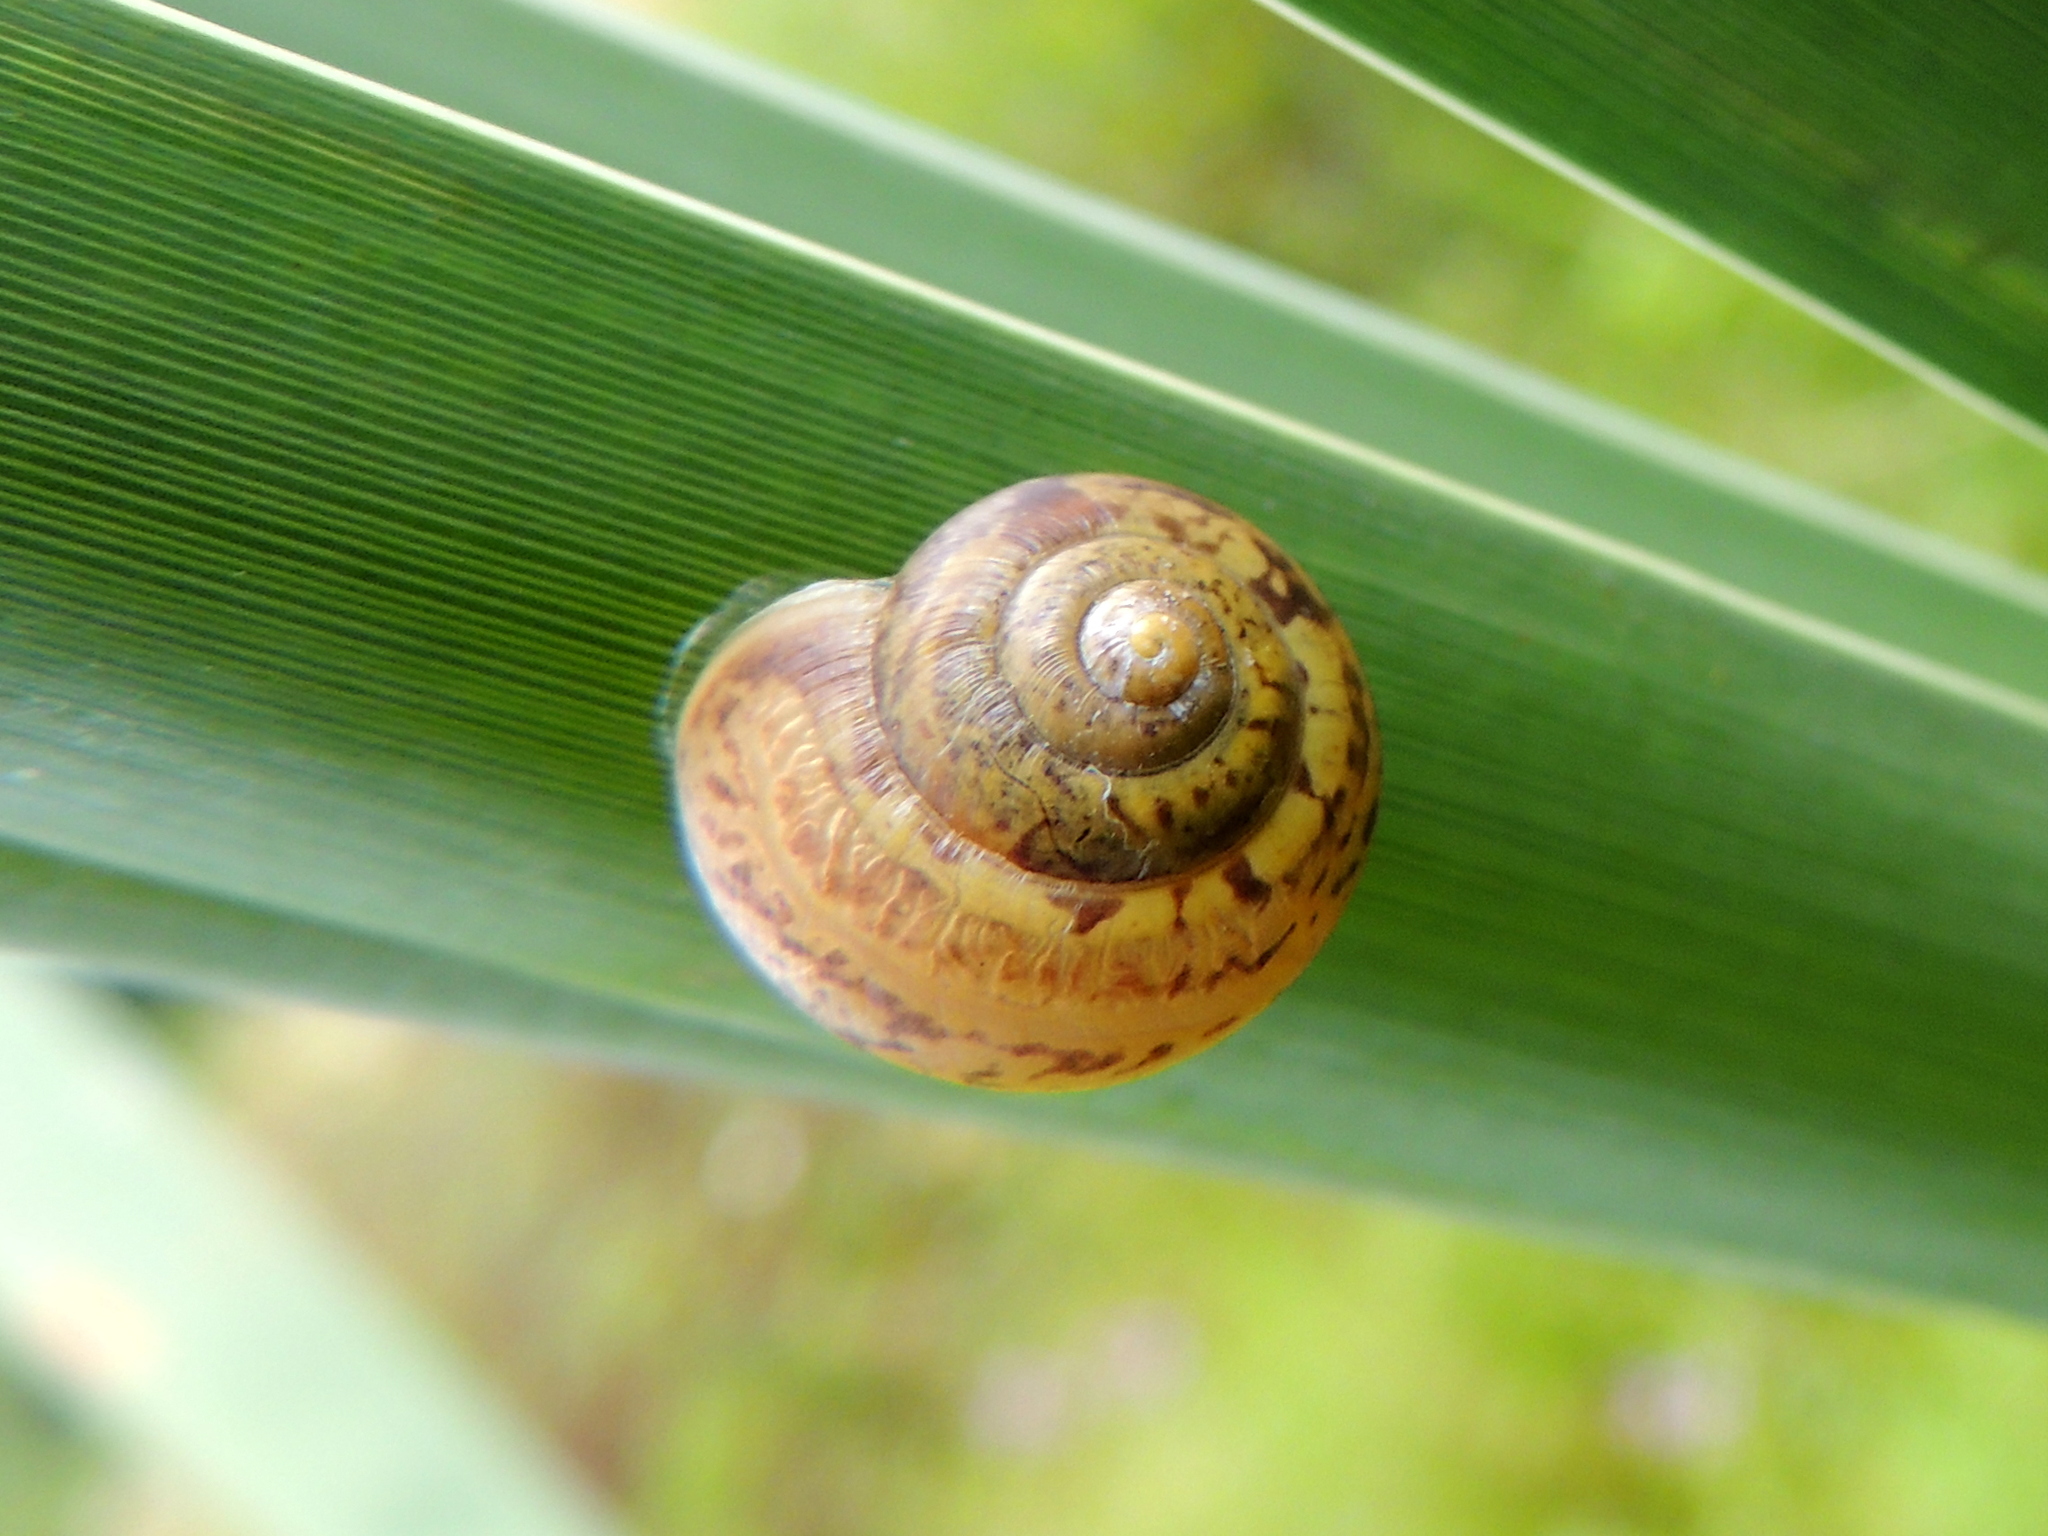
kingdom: Animalia
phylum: Mollusca
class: Gastropoda
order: Stylommatophora
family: Camaenidae
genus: Fruticicola
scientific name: Fruticicola fruticum
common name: Bush snail
